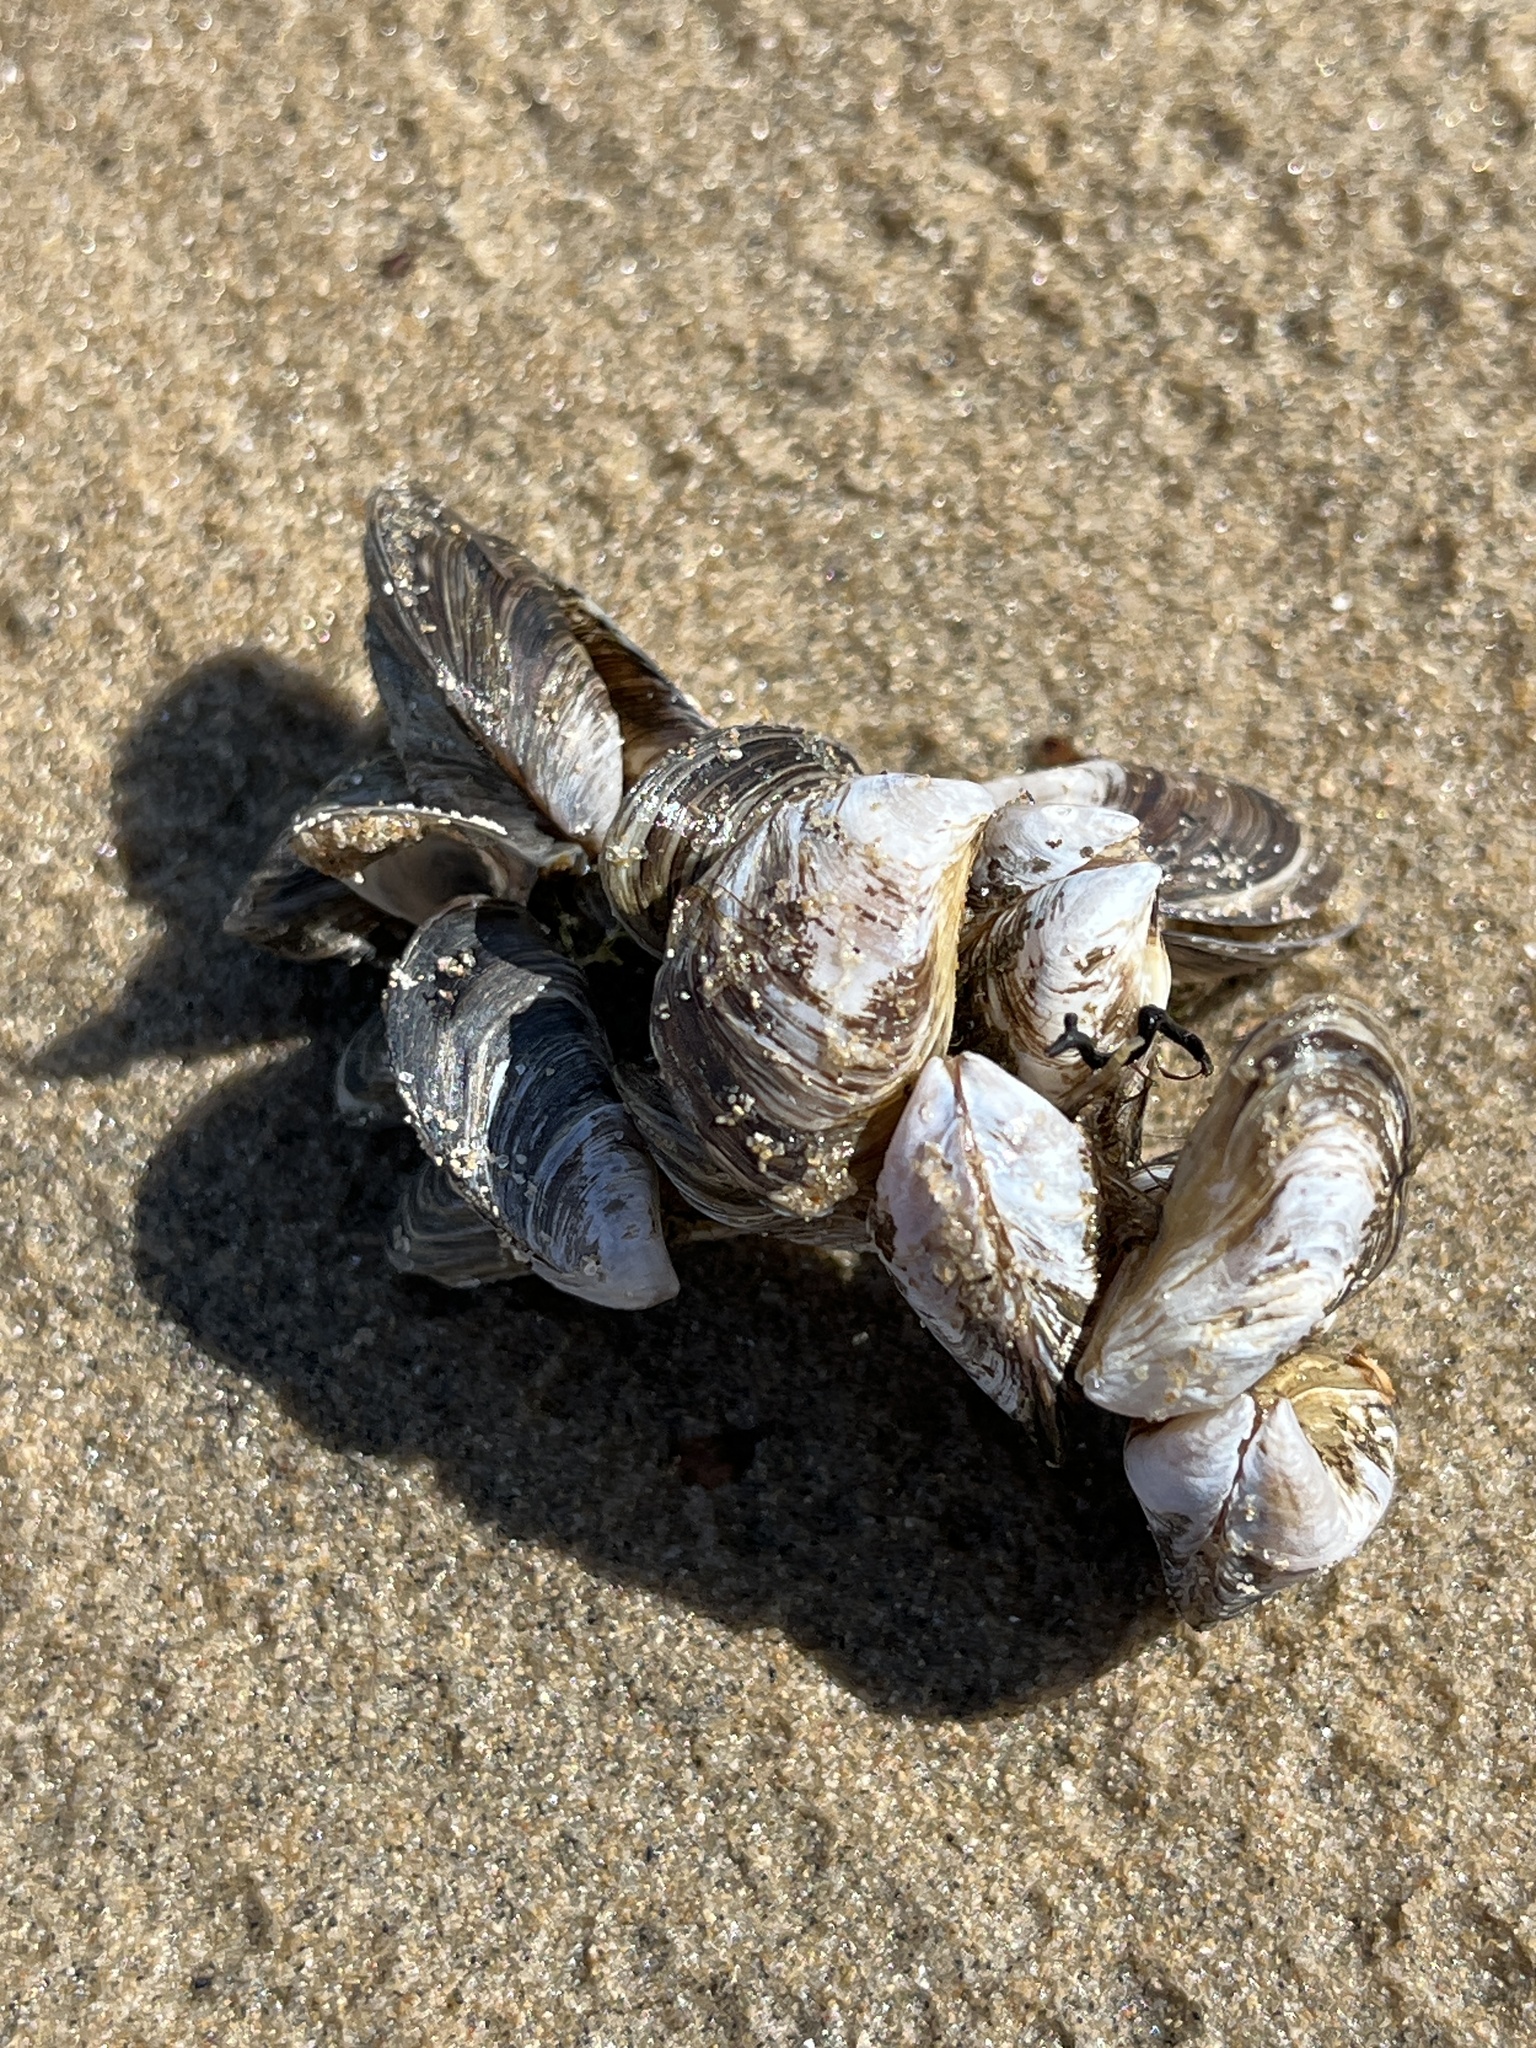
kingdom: Animalia
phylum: Mollusca
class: Bivalvia
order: Myida
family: Dreissenidae
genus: Dreissena
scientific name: Dreissena bugensis
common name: Quagga mussel
